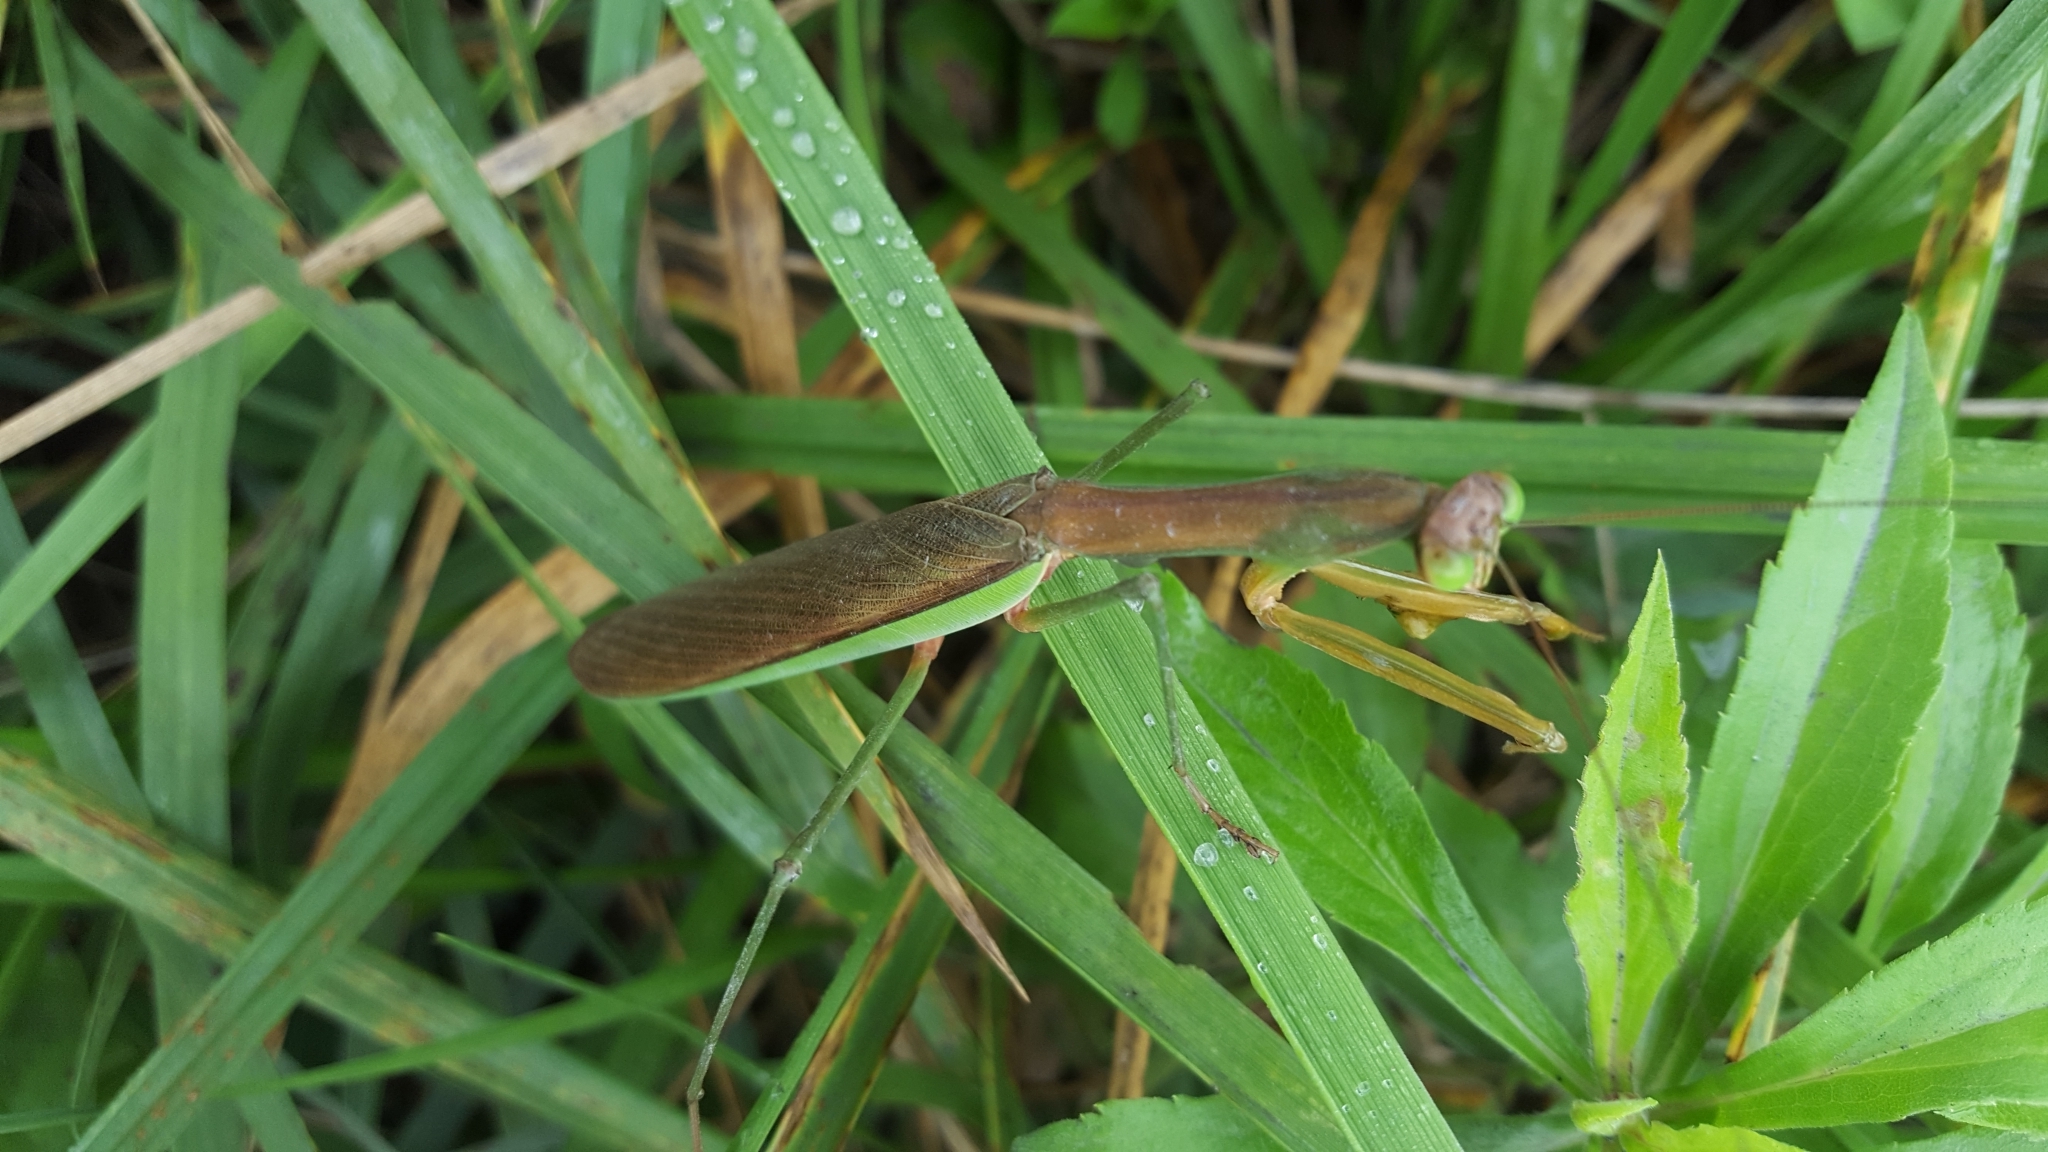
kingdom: Animalia
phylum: Arthropoda
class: Insecta
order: Mantodea
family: Mantidae
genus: Tenodera
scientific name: Tenodera sinensis
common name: Chinese mantis
